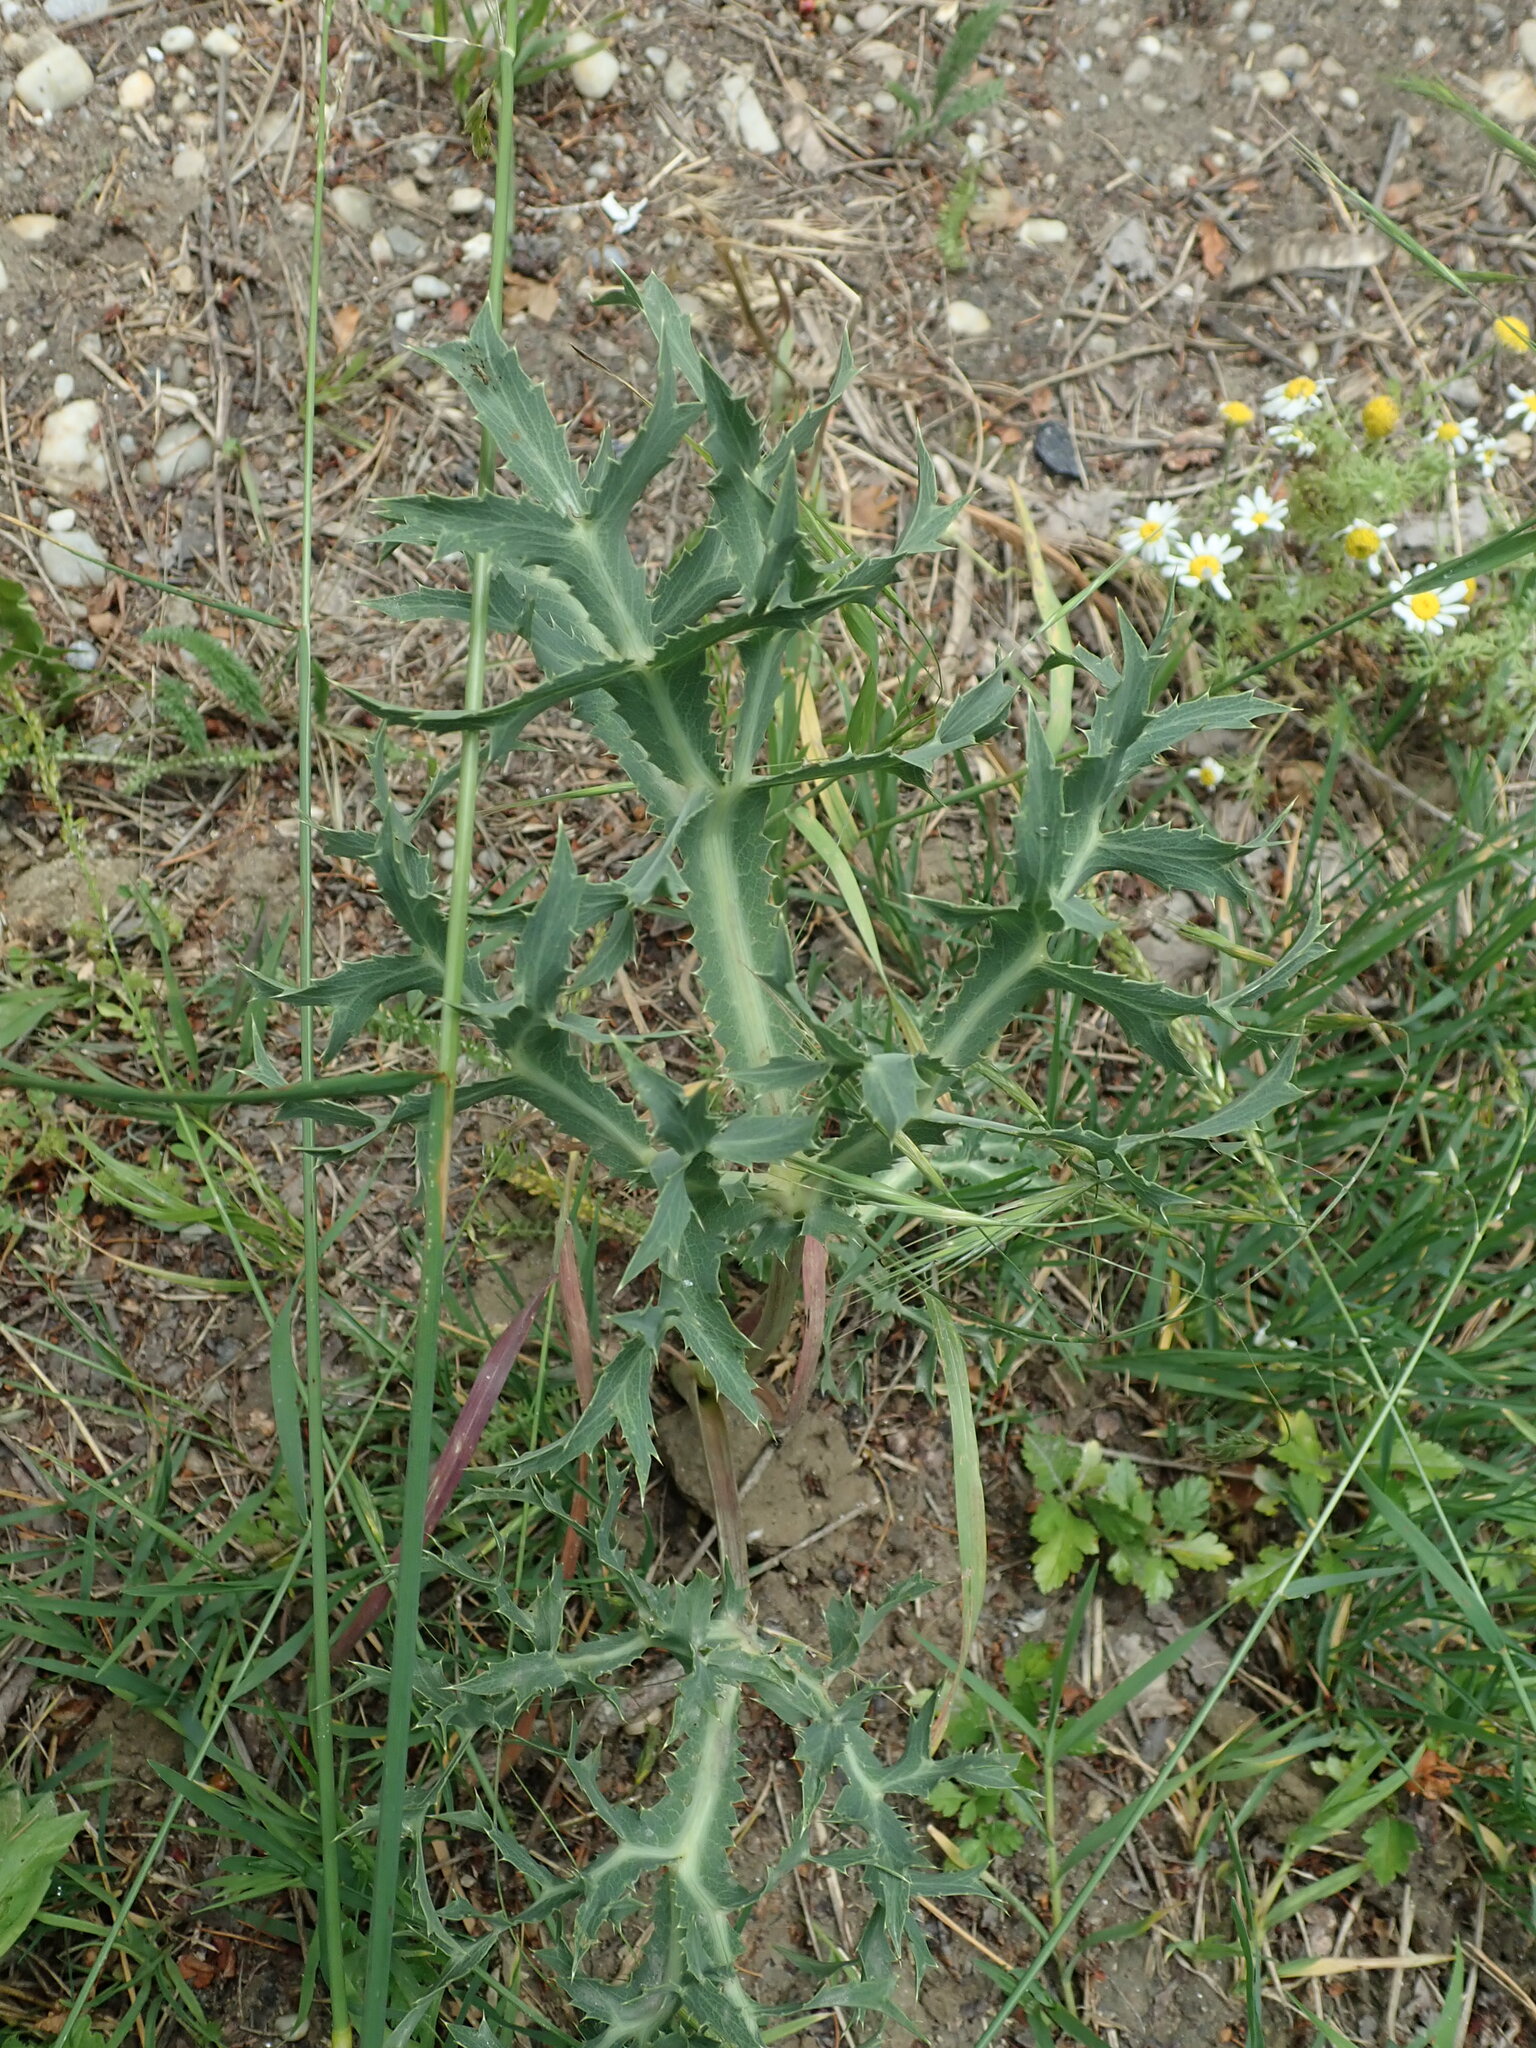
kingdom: Plantae
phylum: Tracheophyta
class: Magnoliopsida
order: Apiales
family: Apiaceae
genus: Eryngium
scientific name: Eryngium campestre
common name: Field eryngo
